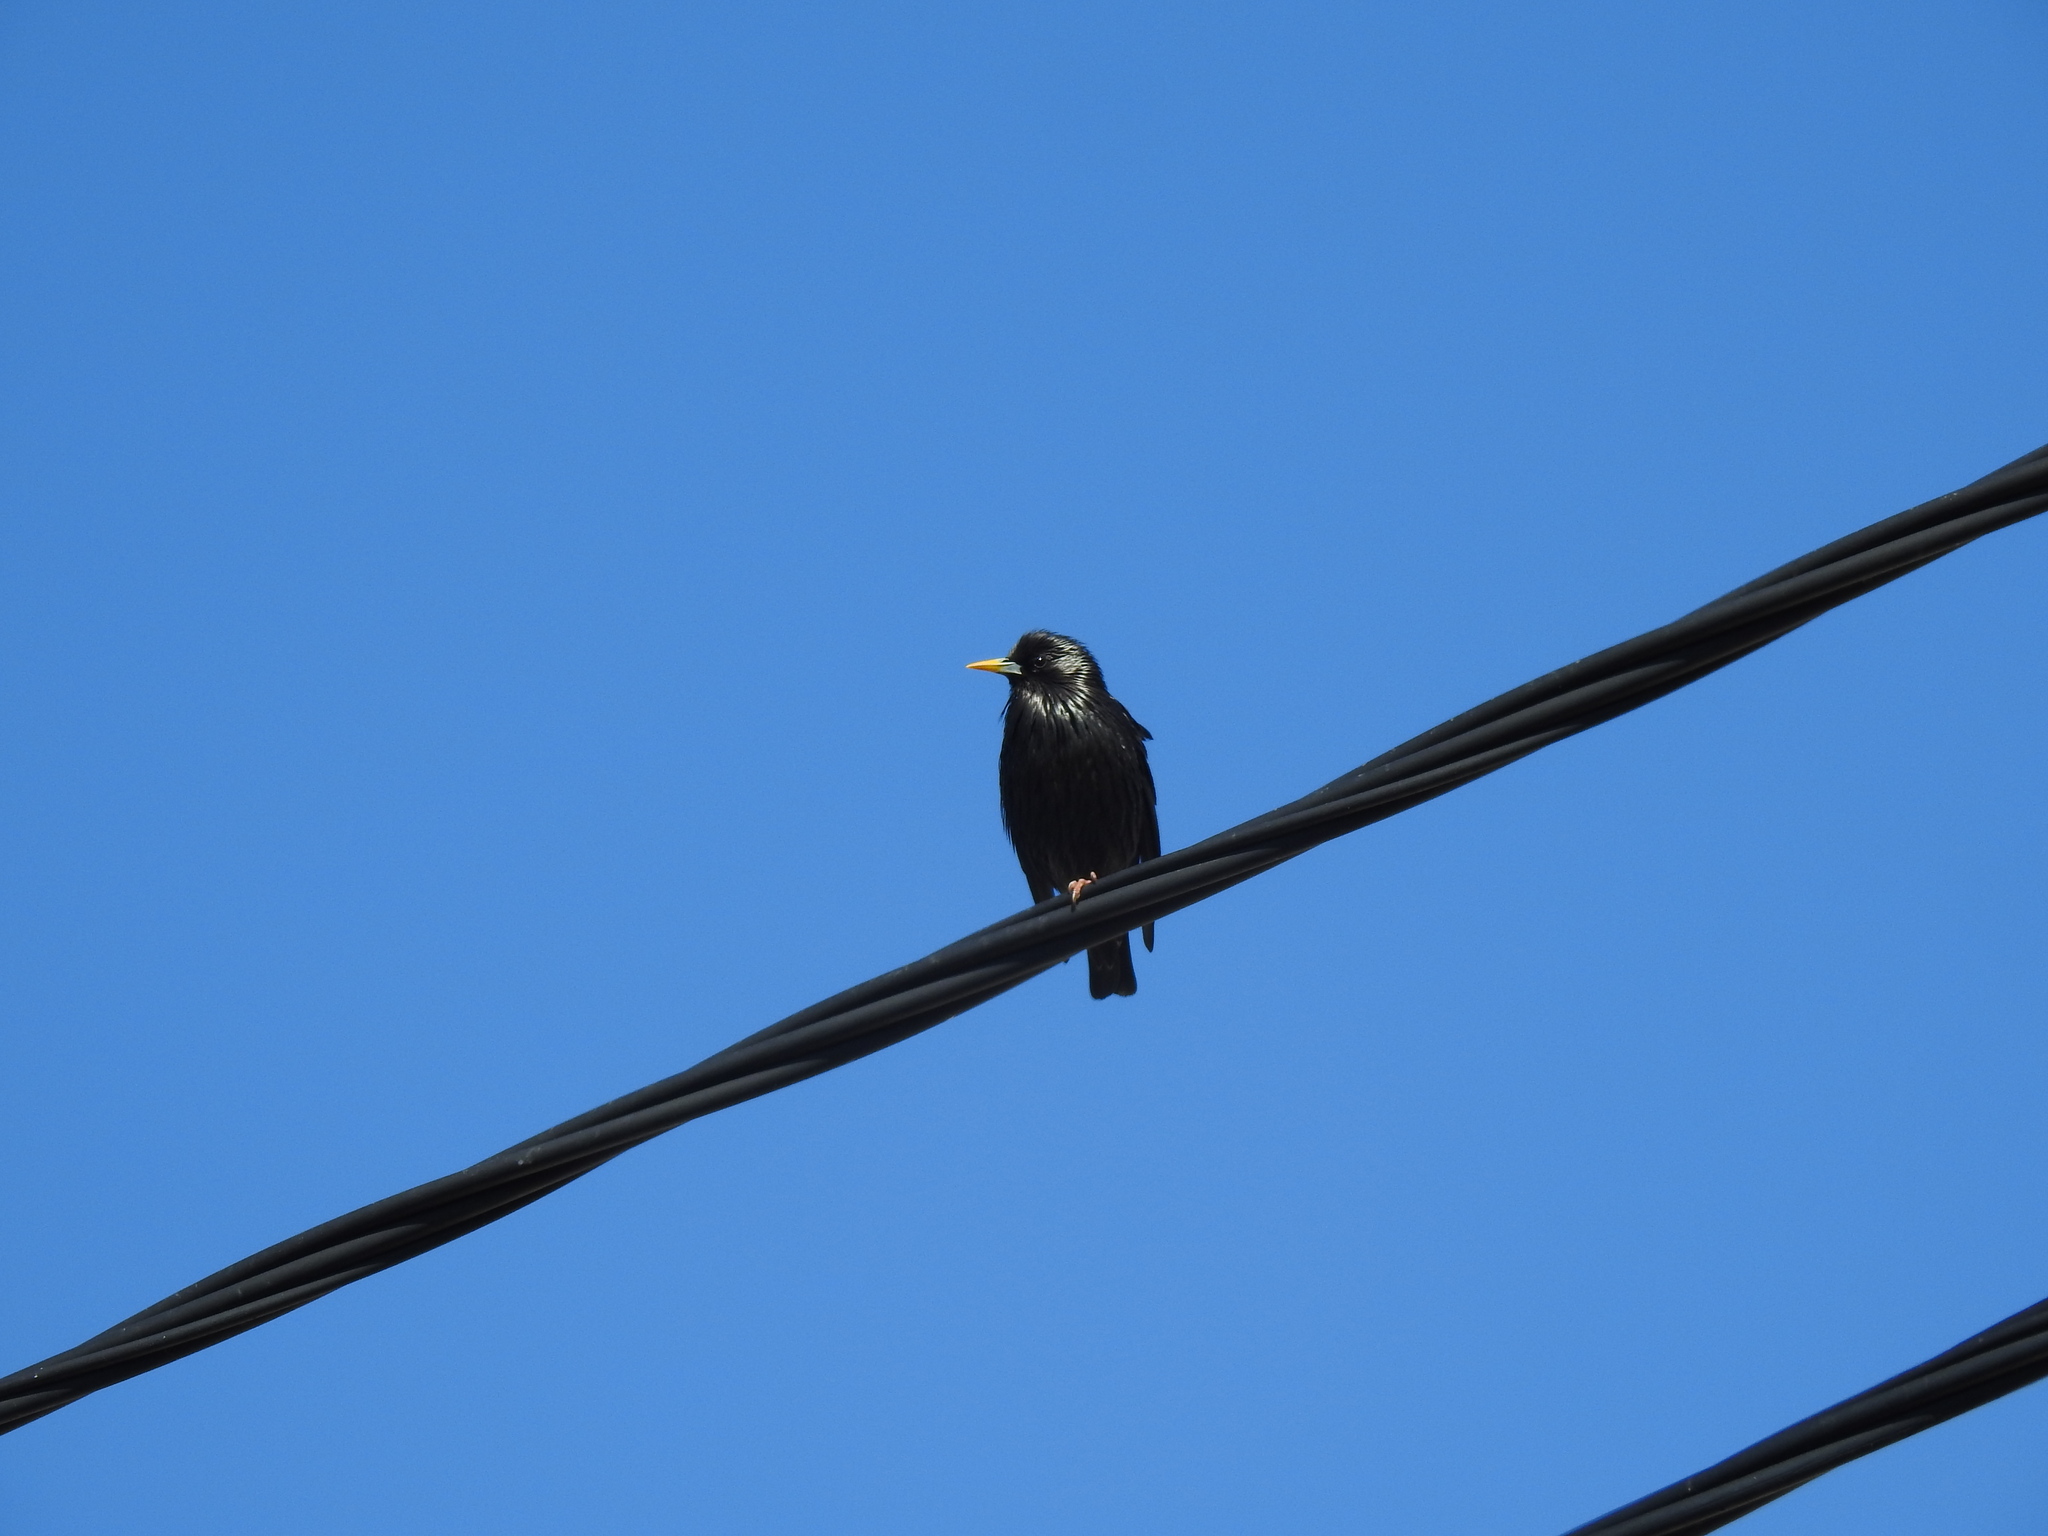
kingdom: Animalia
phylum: Chordata
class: Aves
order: Passeriformes
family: Sturnidae
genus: Sturnus
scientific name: Sturnus unicolor
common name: Spotless starling
